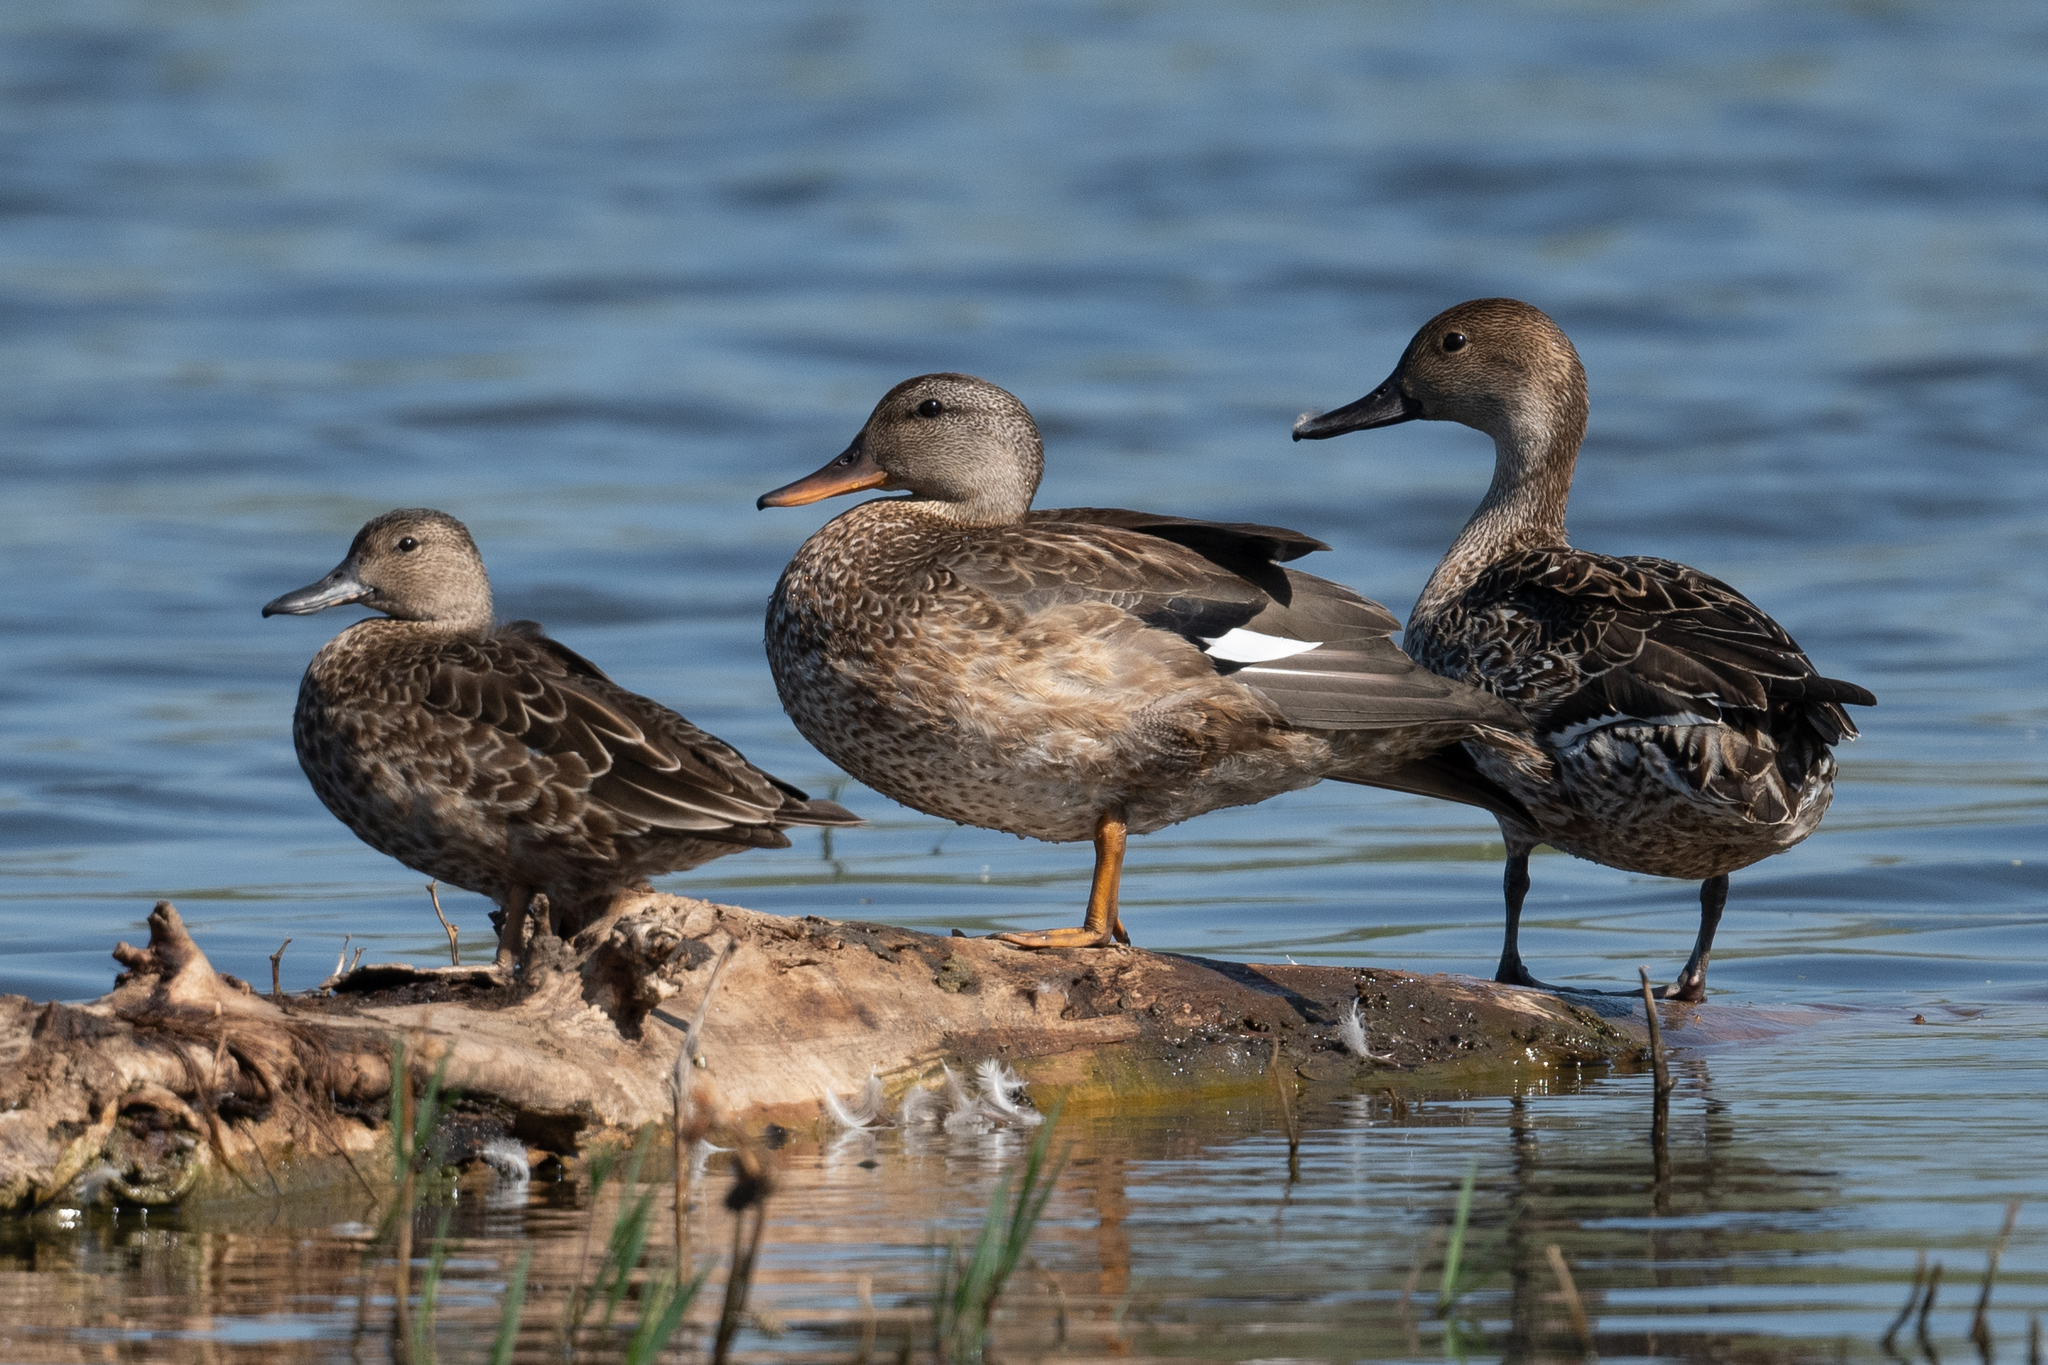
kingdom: Animalia
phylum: Chordata
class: Aves
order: Anseriformes
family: Anatidae
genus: Mareca
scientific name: Mareca strepera
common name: Gadwall
